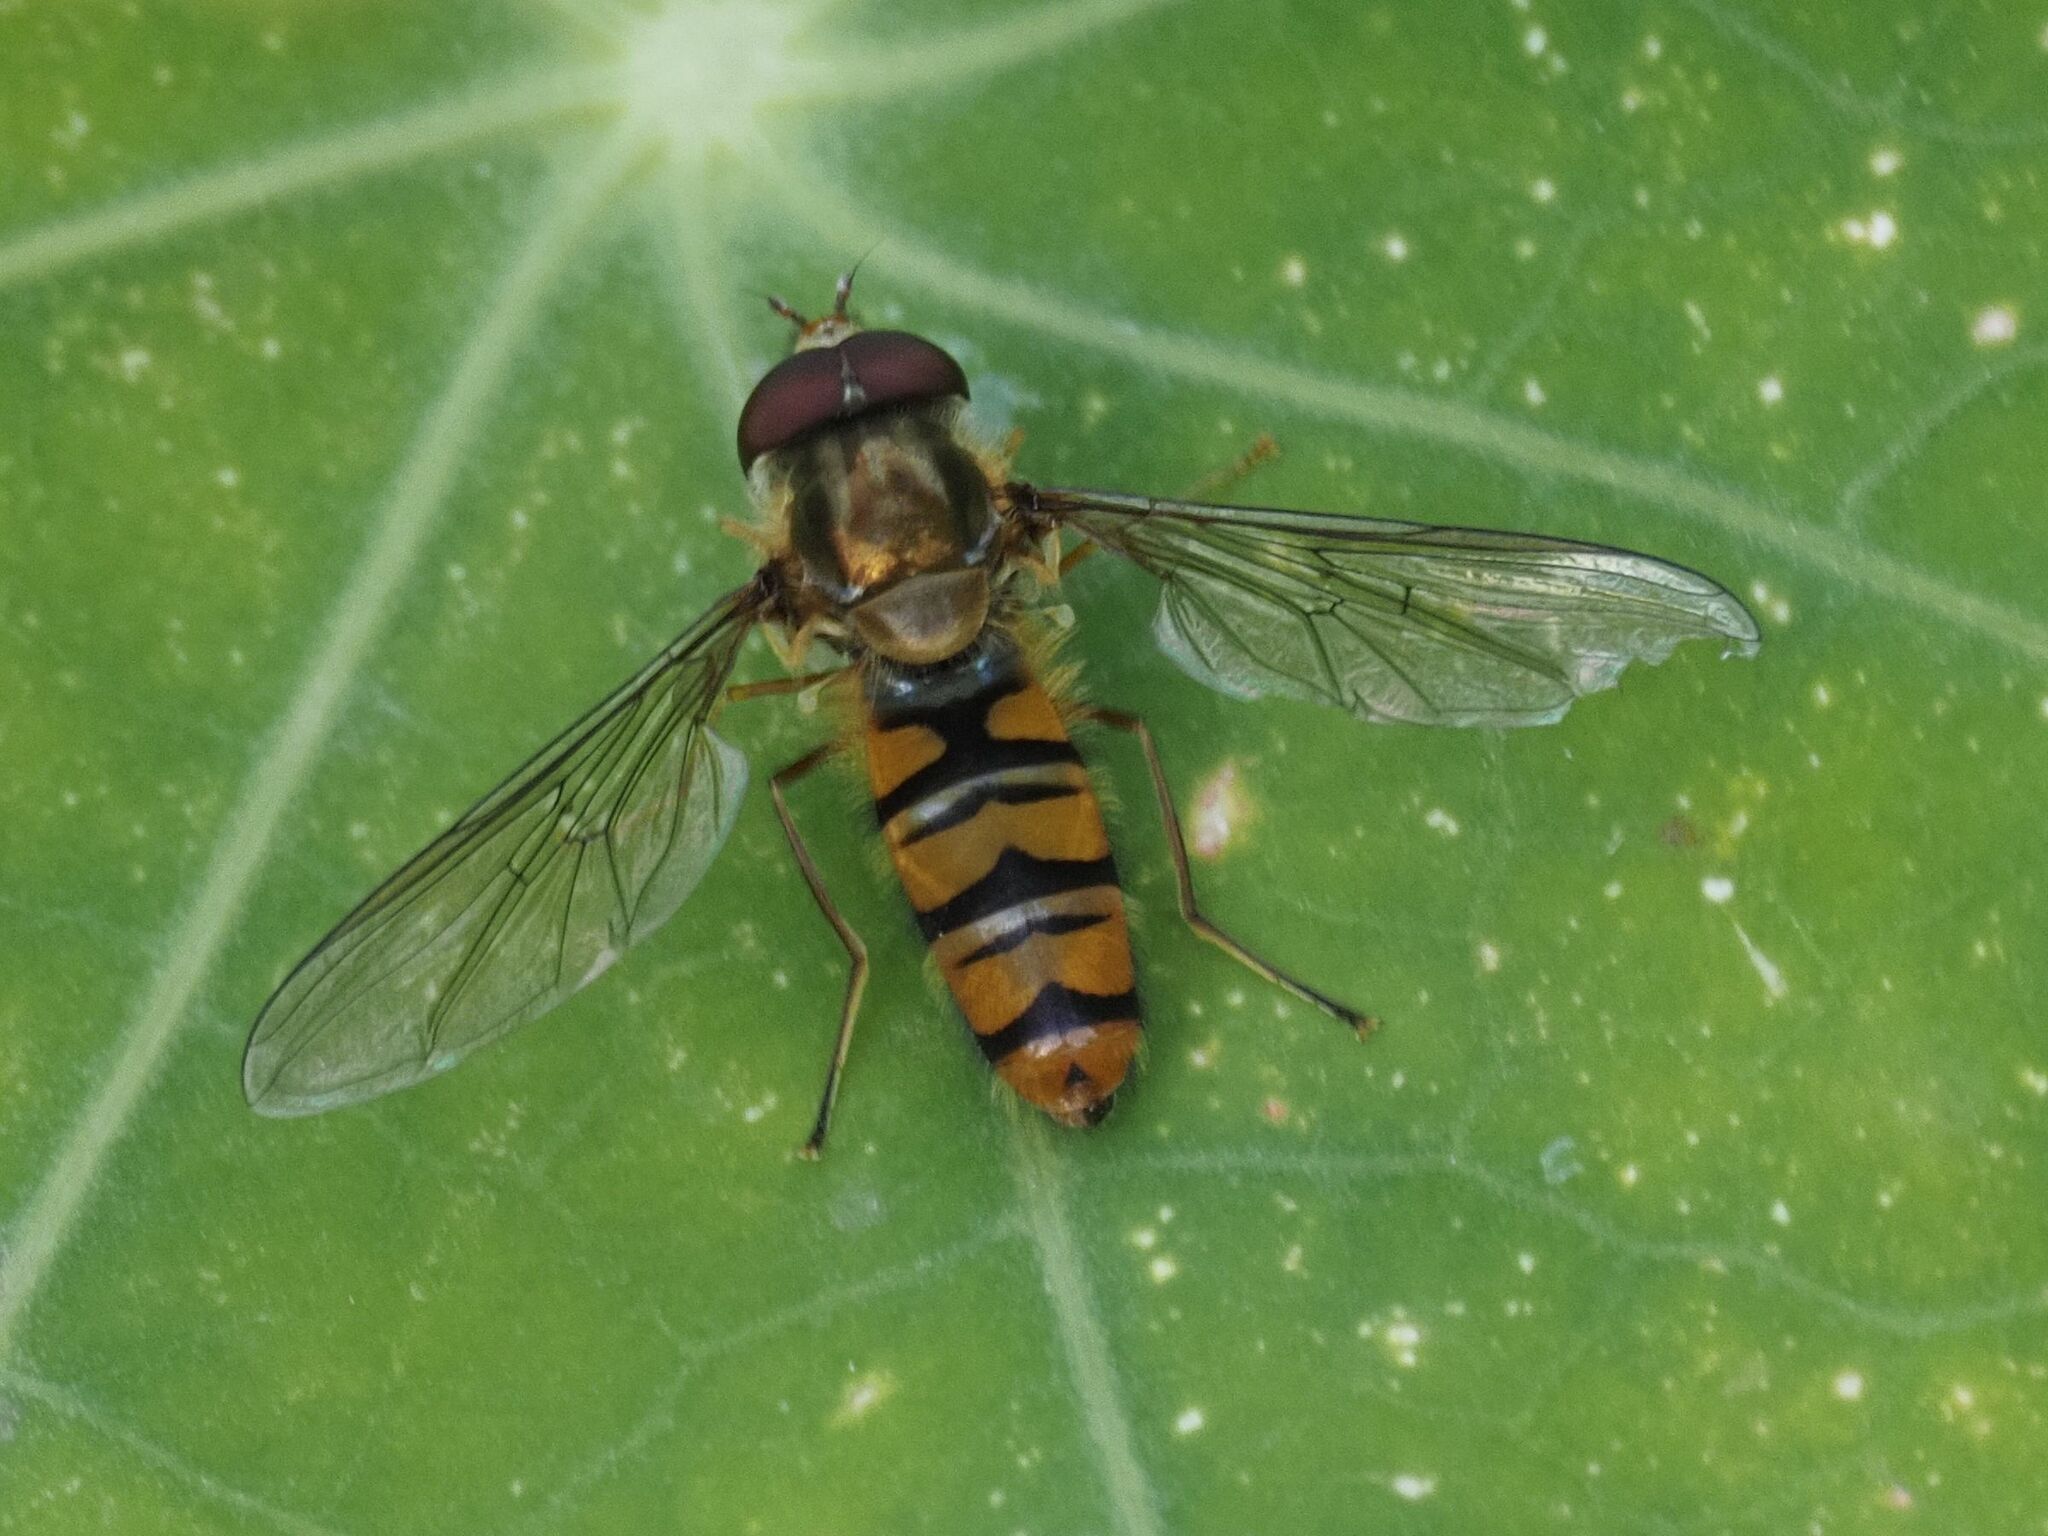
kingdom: Animalia
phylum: Arthropoda
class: Insecta
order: Diptera
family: Syrphidae
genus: Episyrphus
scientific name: Episyrphus balteatus
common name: Marmalade hoverfly
